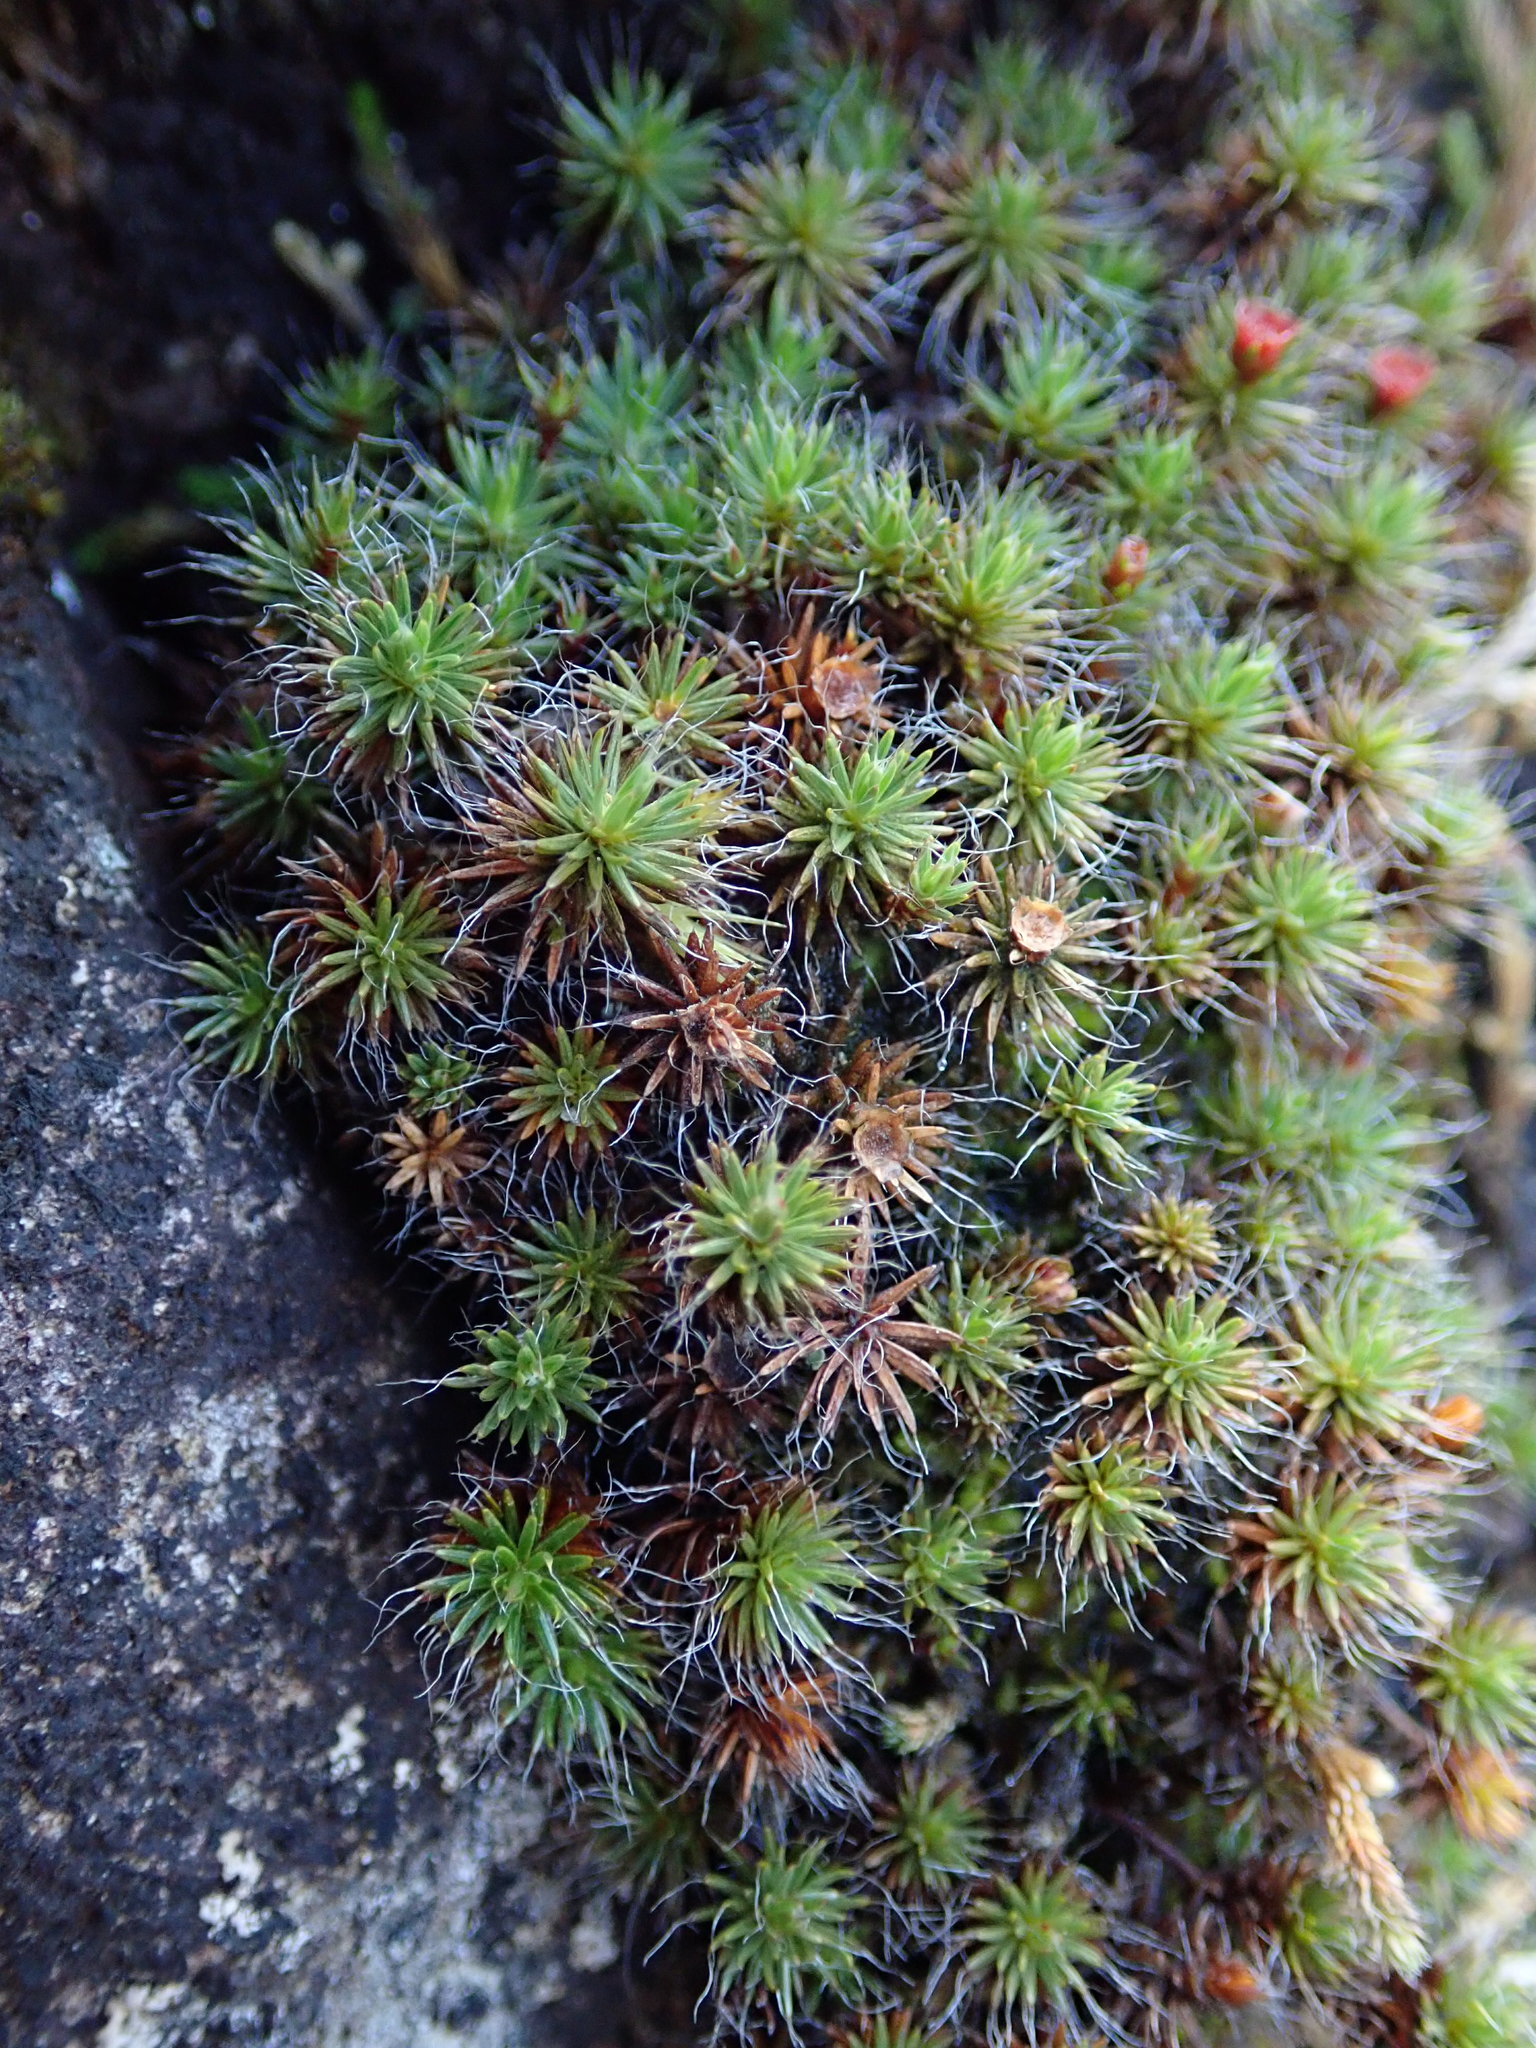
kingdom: Plantae
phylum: Bryophyta
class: Polytrichopsida
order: Polytrichales
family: Polytrichaceae
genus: Polytrichum
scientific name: Polytrichum piliferum
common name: Bristly haircap
